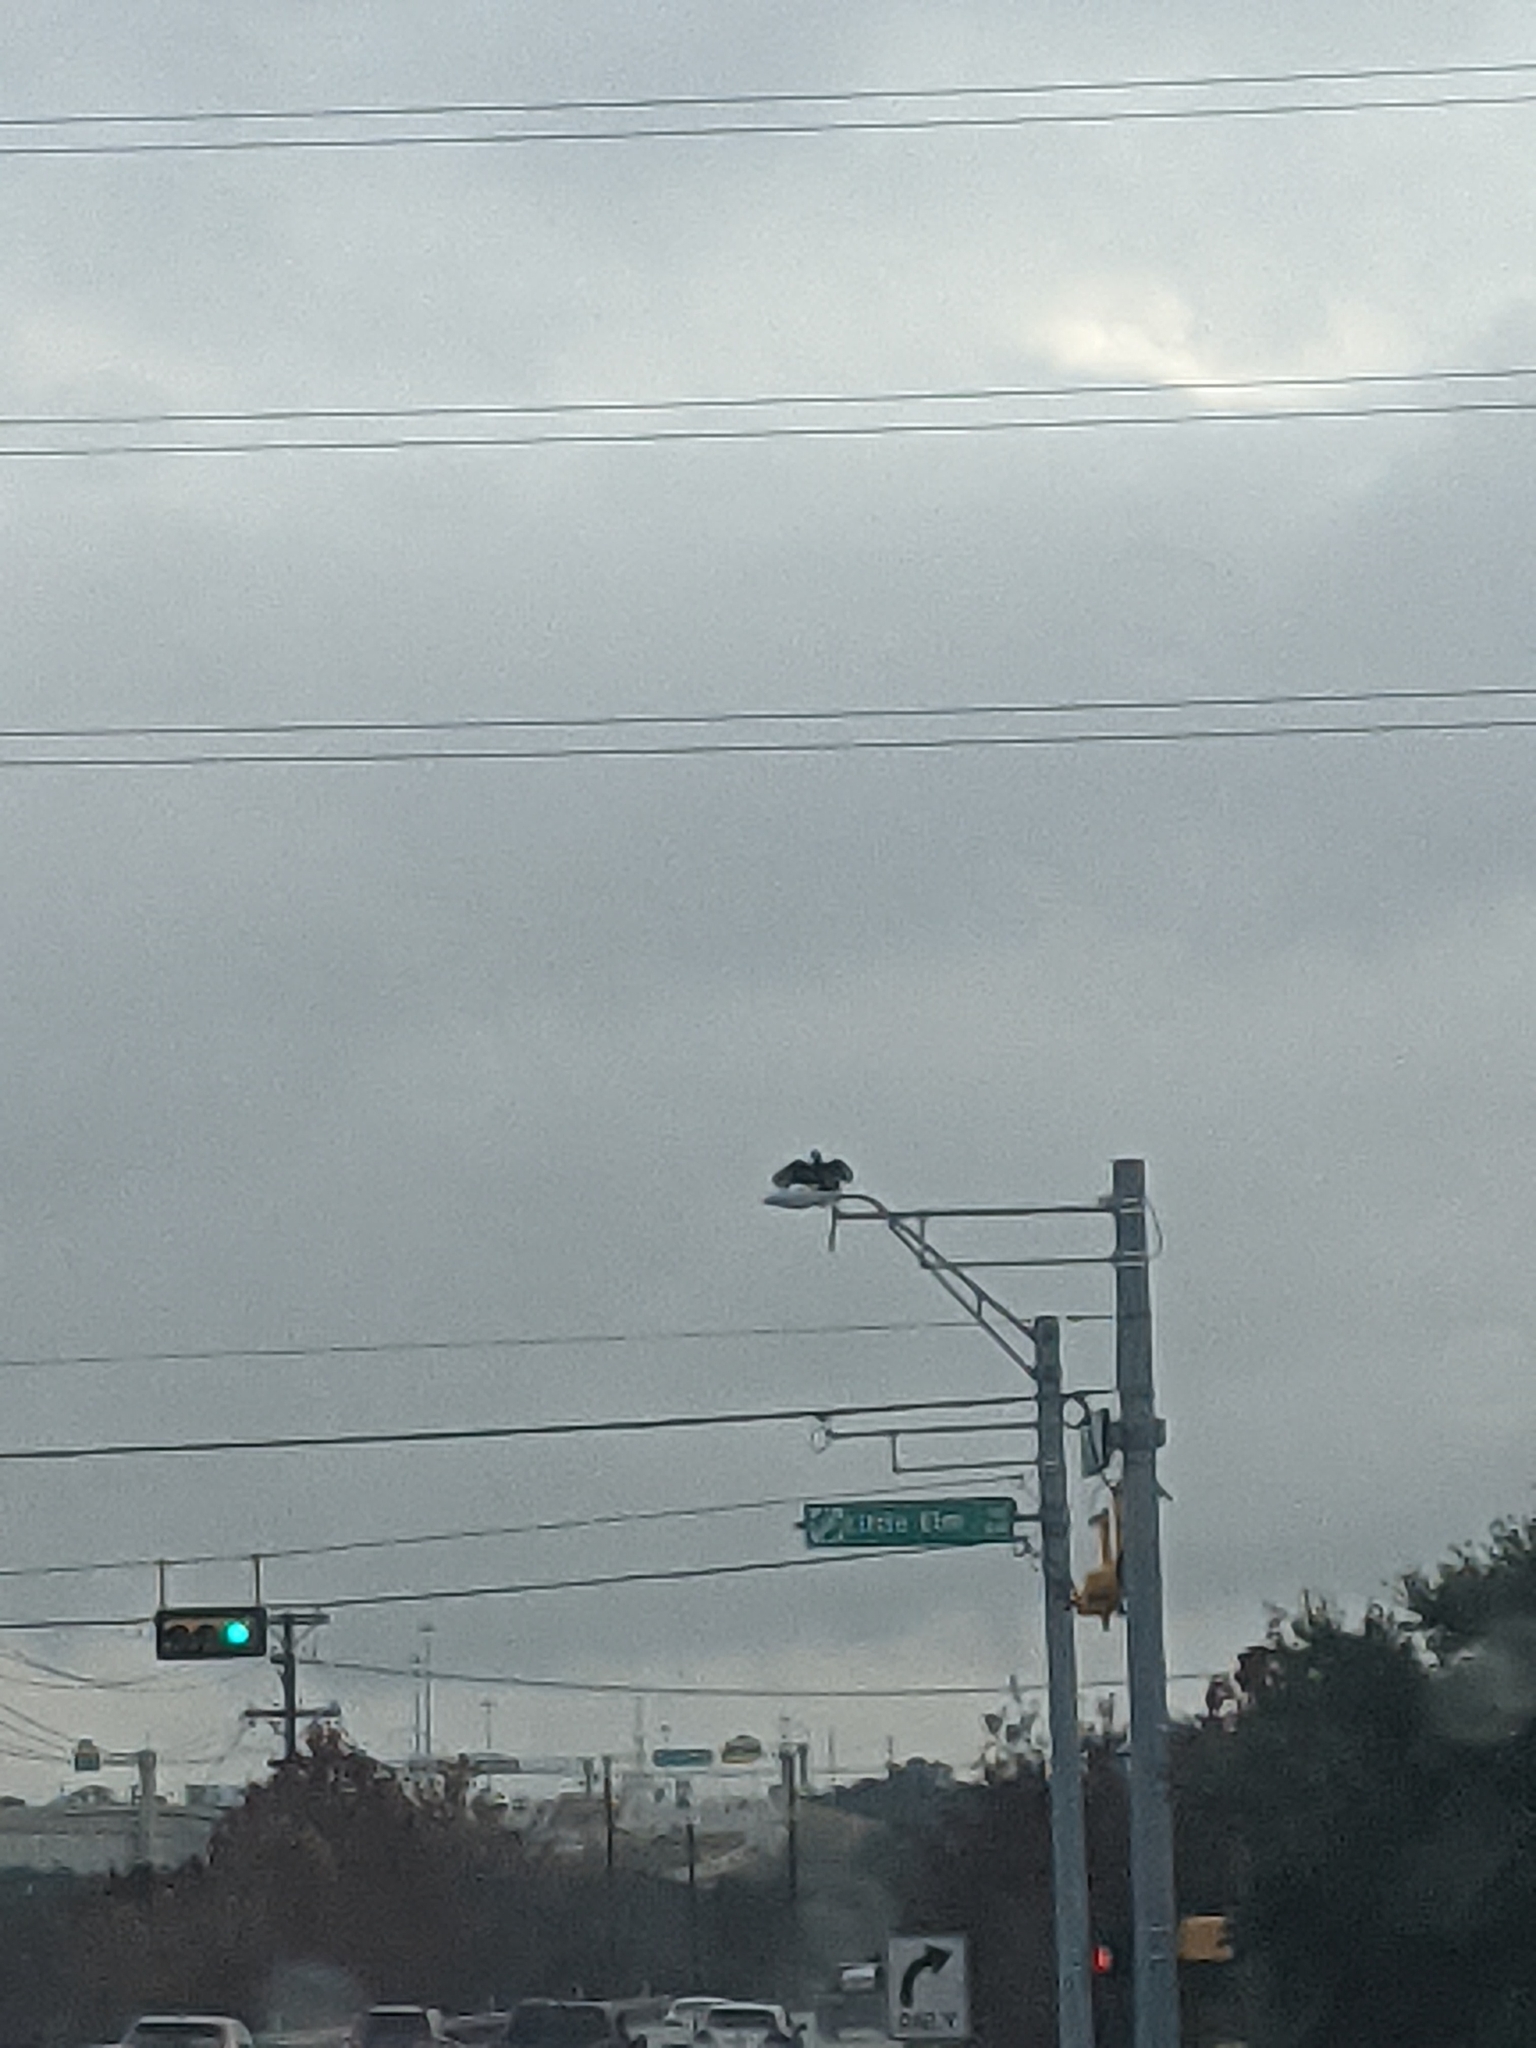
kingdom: Animalia
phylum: Chordata
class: Aves
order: Accipitriformes
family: Cathartidae
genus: Coragyps
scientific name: Coragyps atratus
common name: Black vulture
